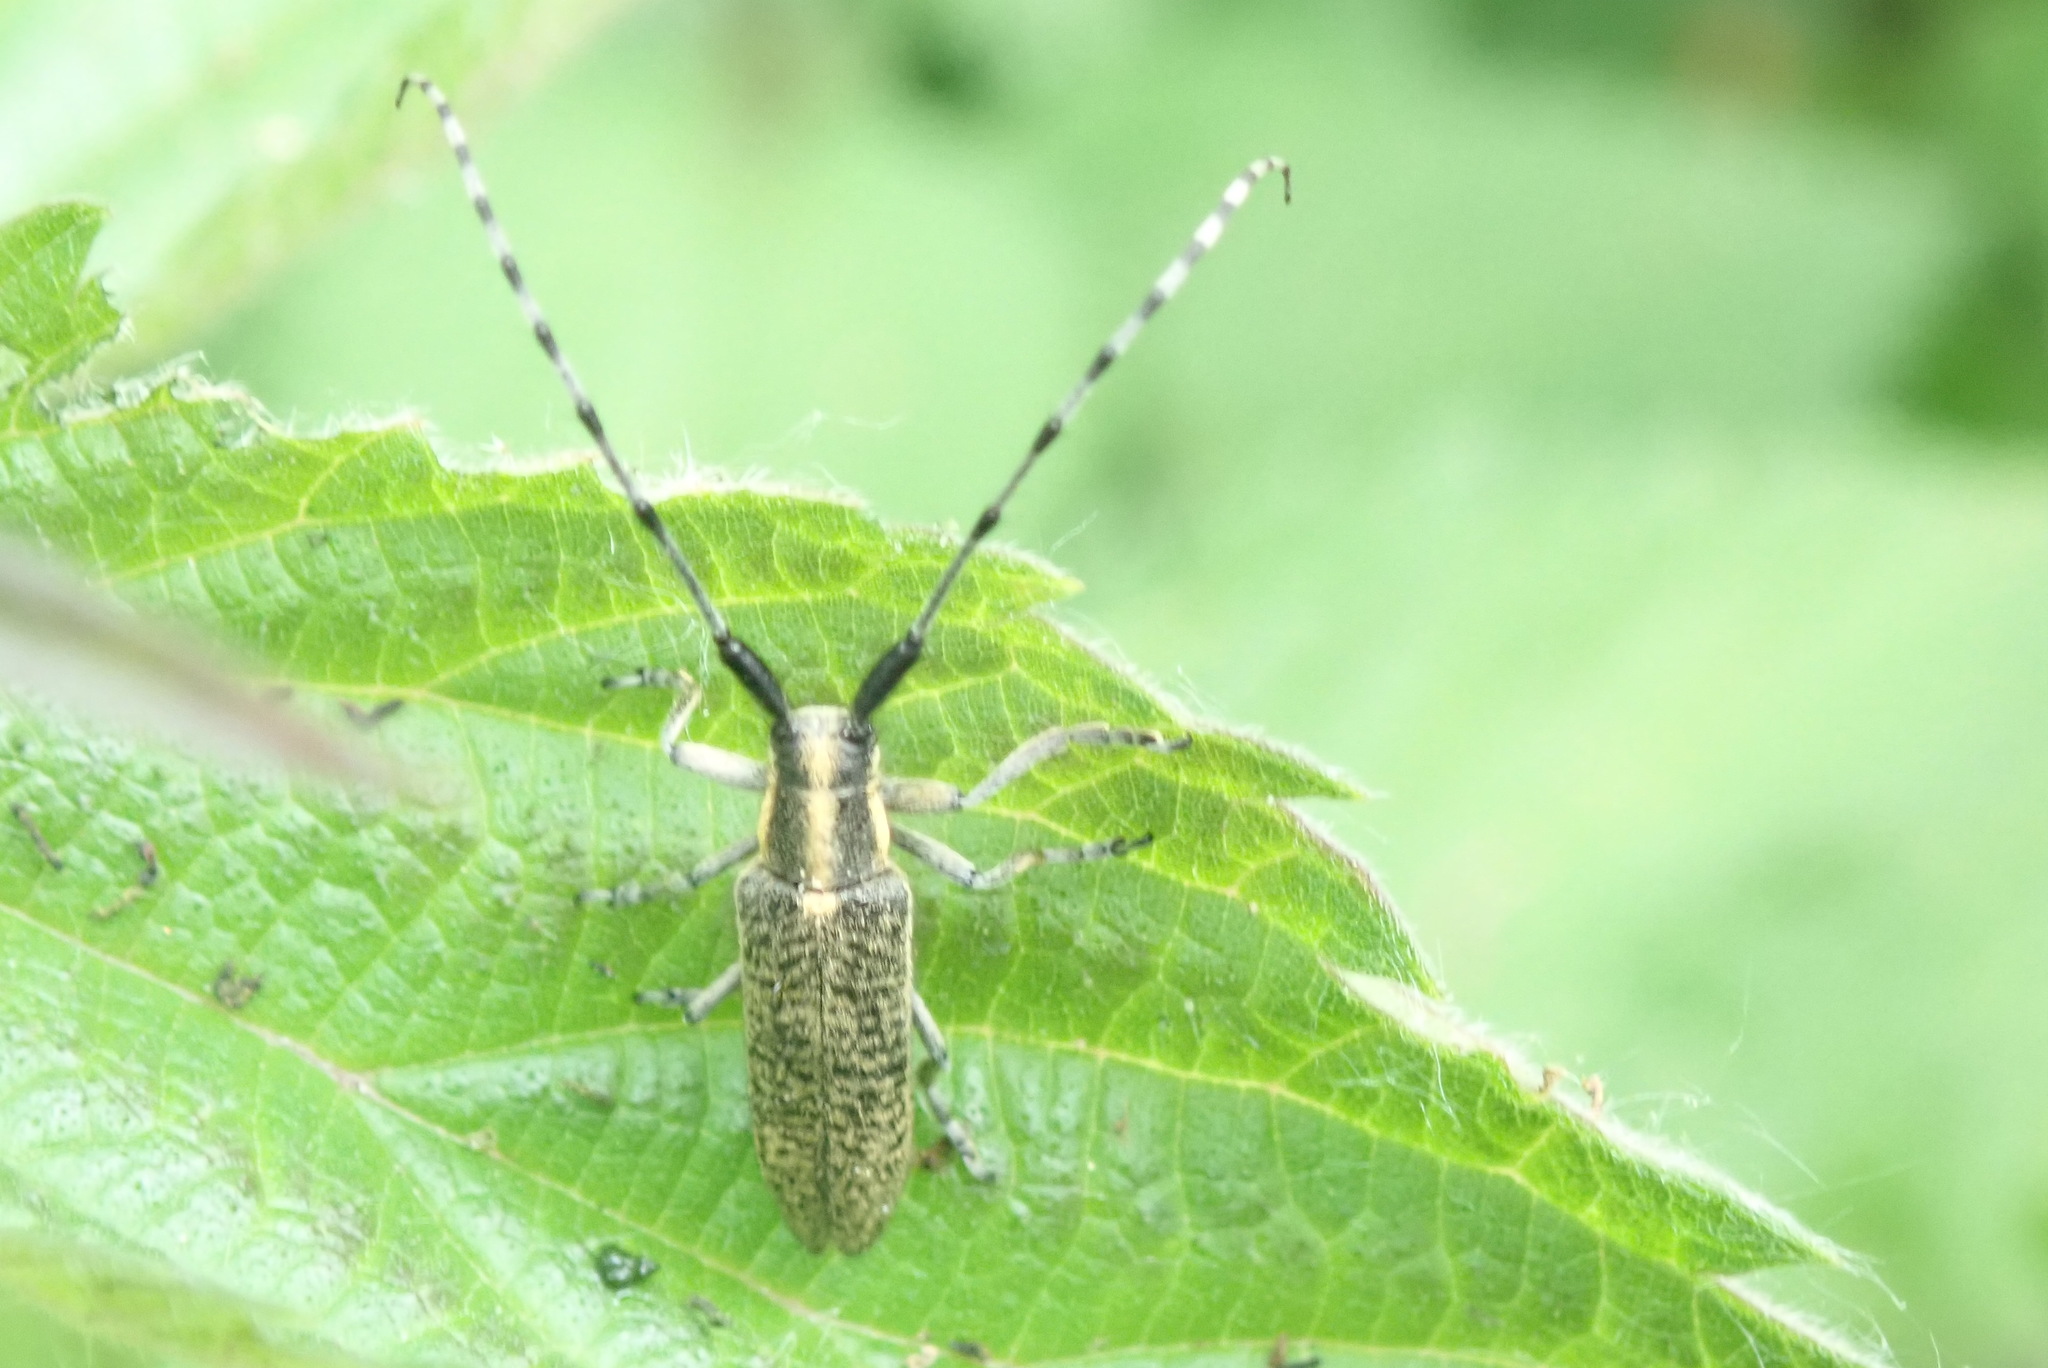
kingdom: Animalia
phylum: Arthropoda
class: Insecta
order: Coleoptera
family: Cerambycidae
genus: Agapanthia
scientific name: Agapanthia villosoviridescens
